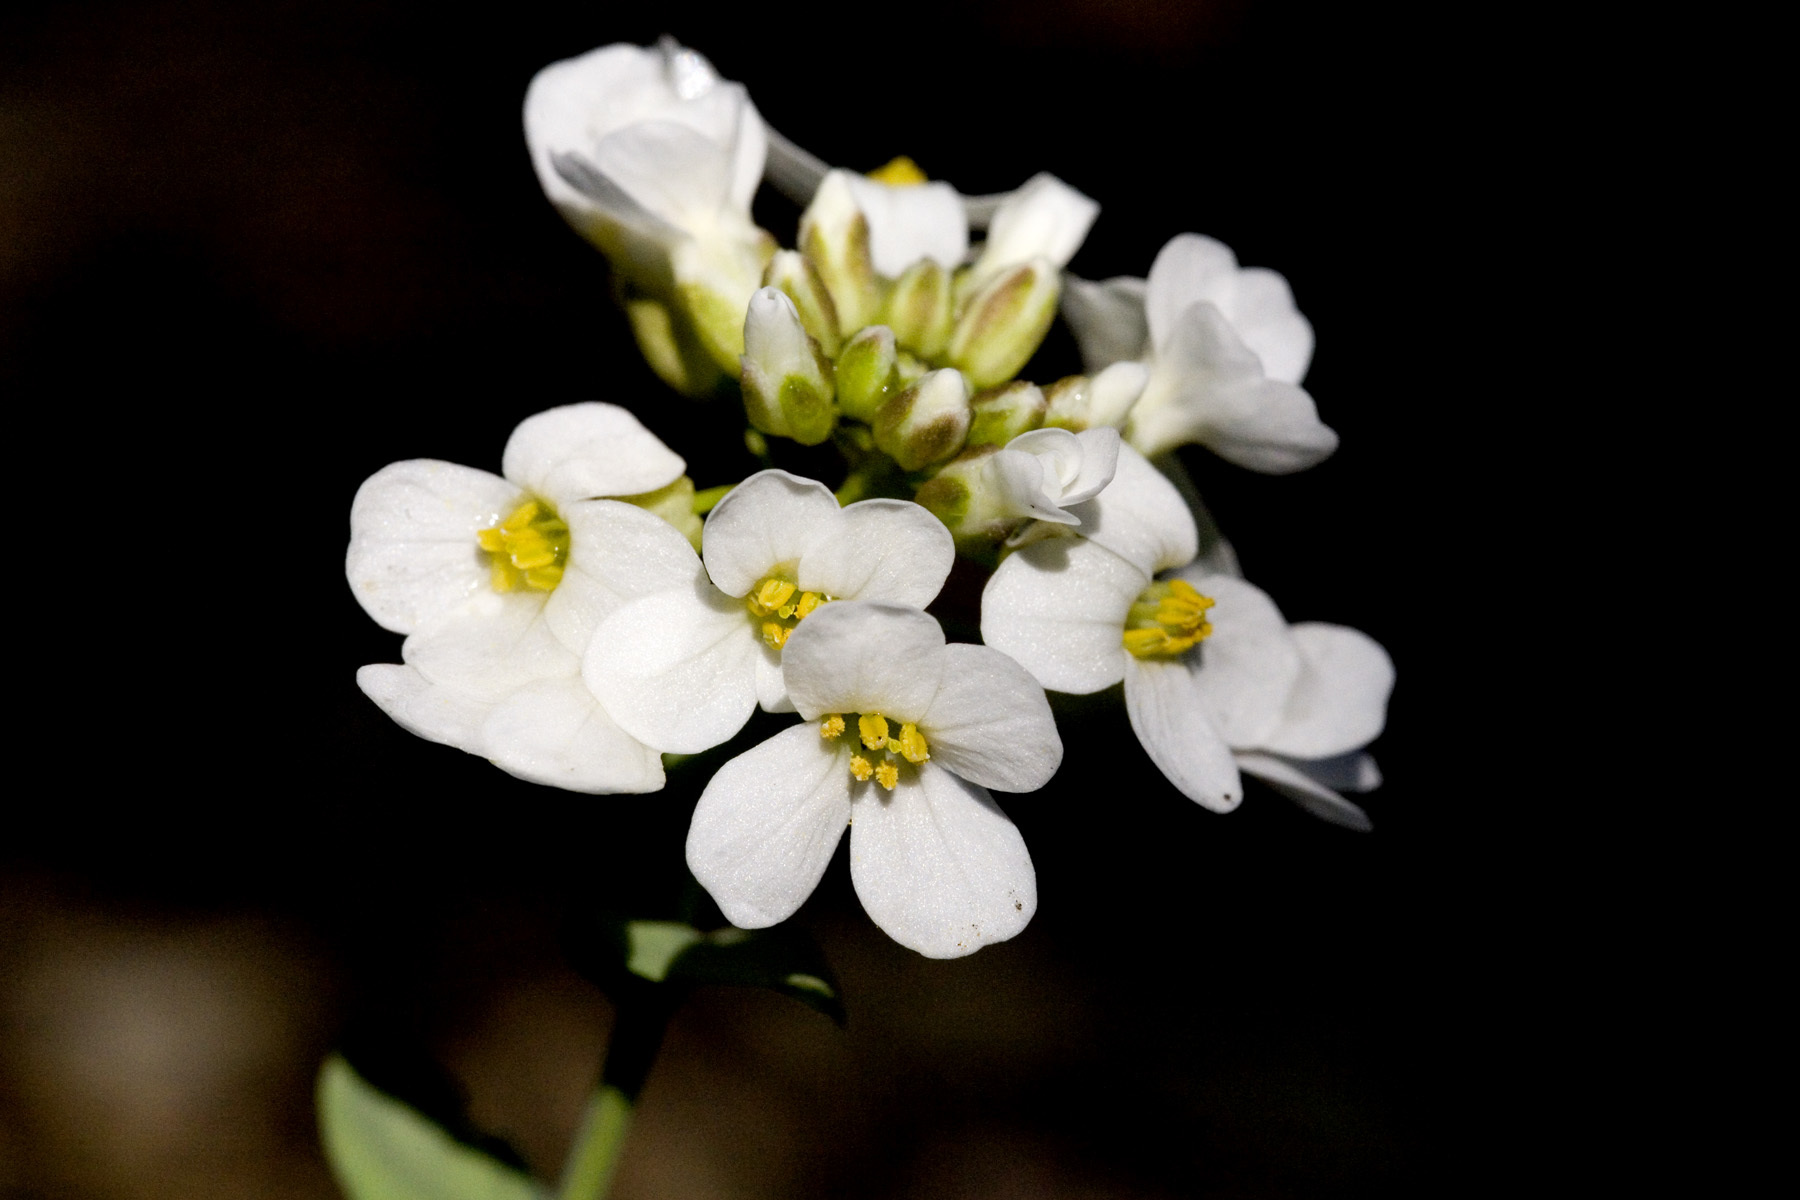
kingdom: Plantae
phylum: Tracheophyta
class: Magnoliopsida
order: Brassicales
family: Brassicaceae
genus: Noccaea
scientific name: Noccaea fendleri
